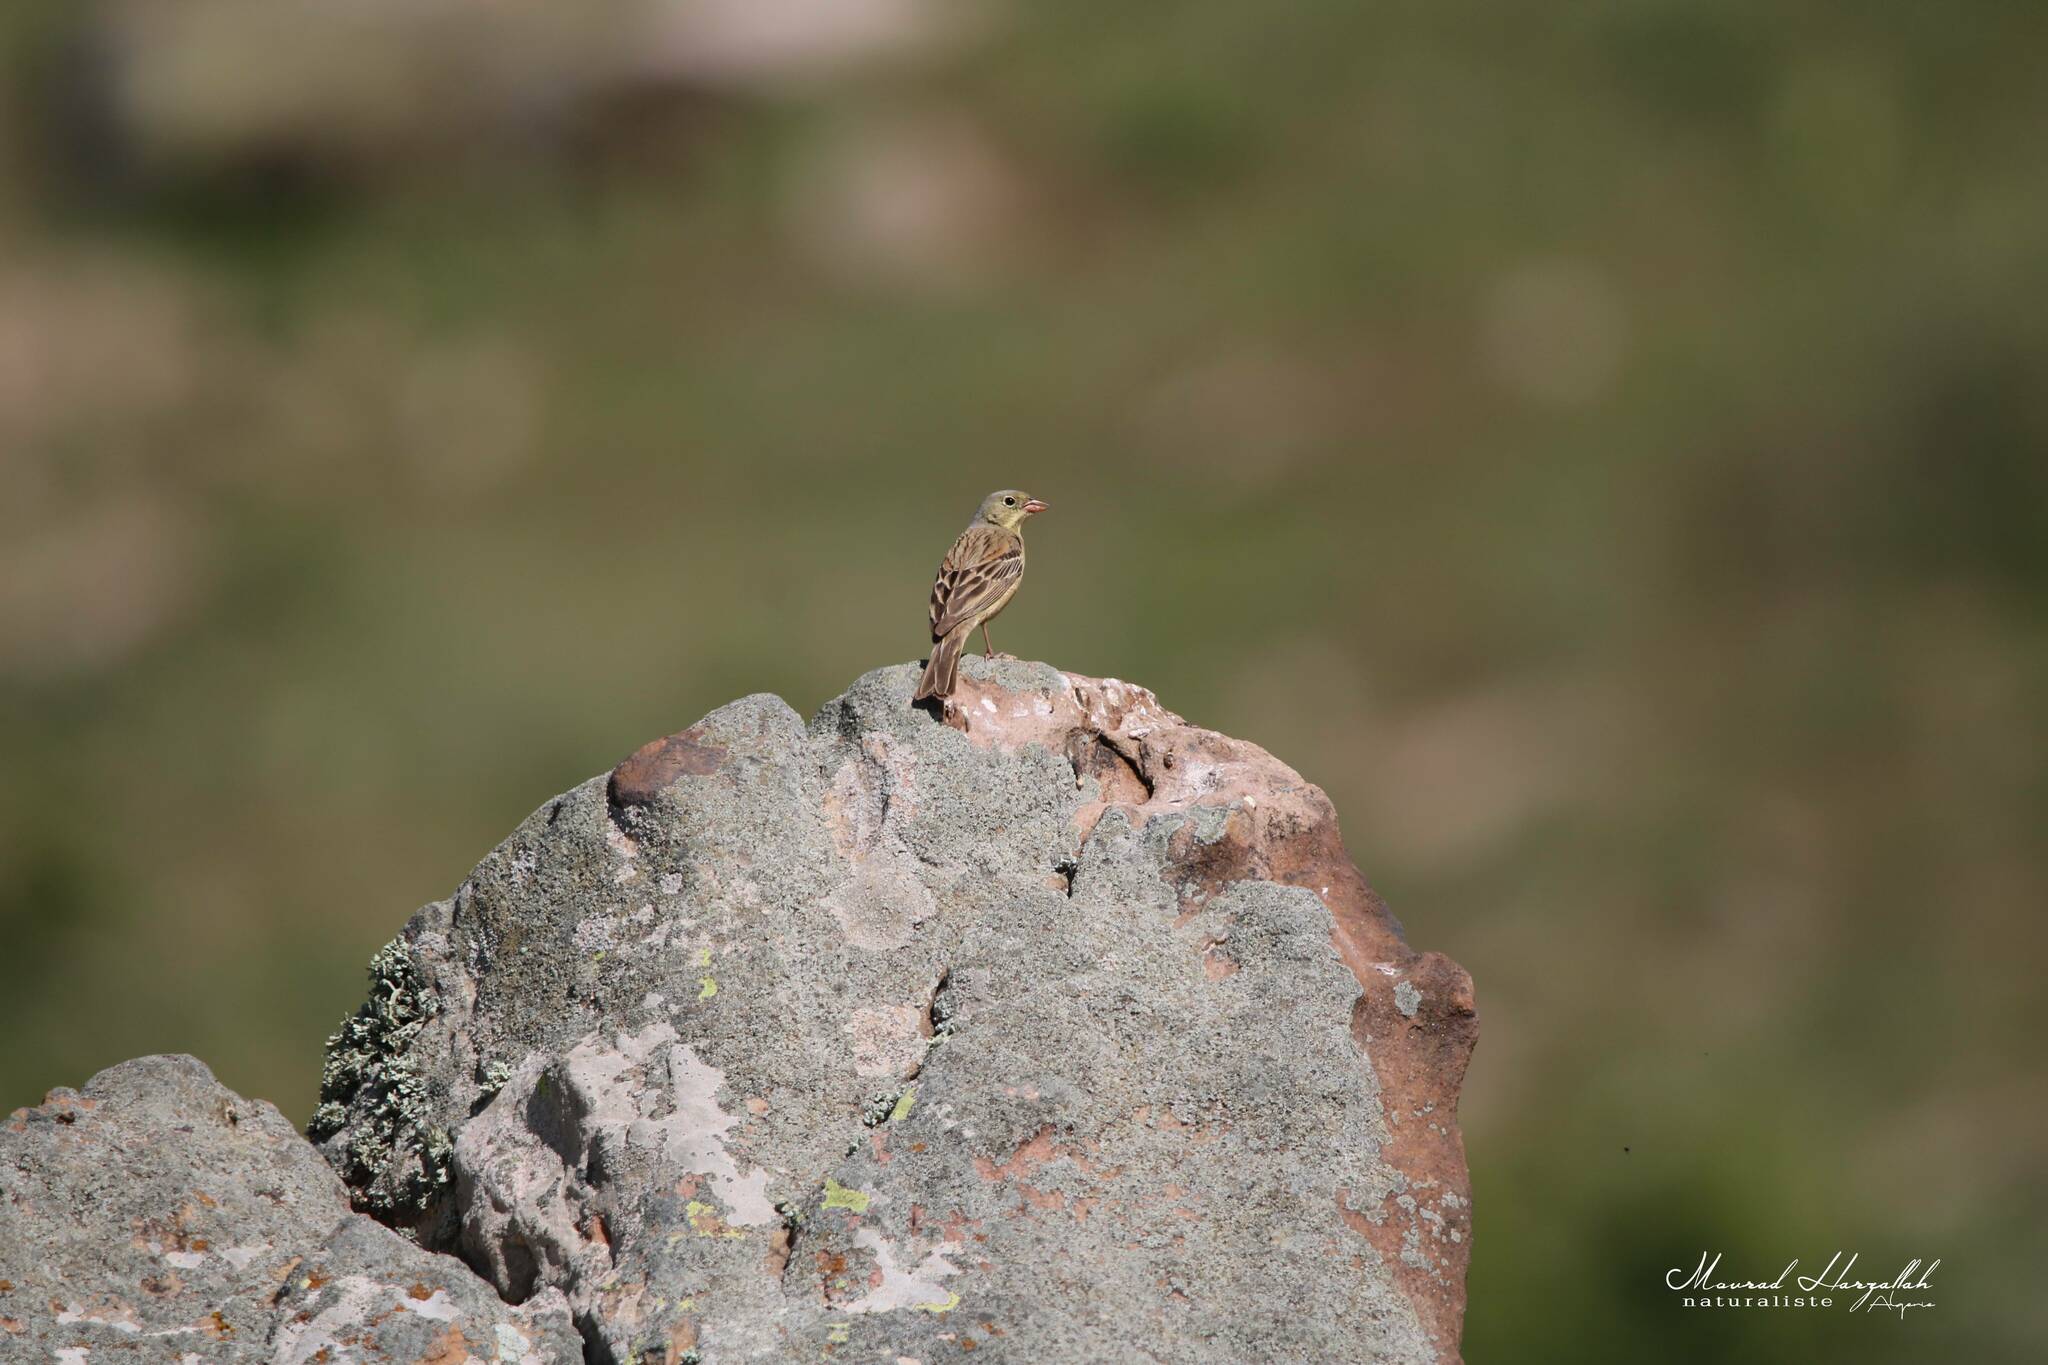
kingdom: Animalia
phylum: Chordata
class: Aves
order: Passeriformes
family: Emberizidae
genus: Emberiza
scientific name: Emberiza hortulana
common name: Ortolan bunting
